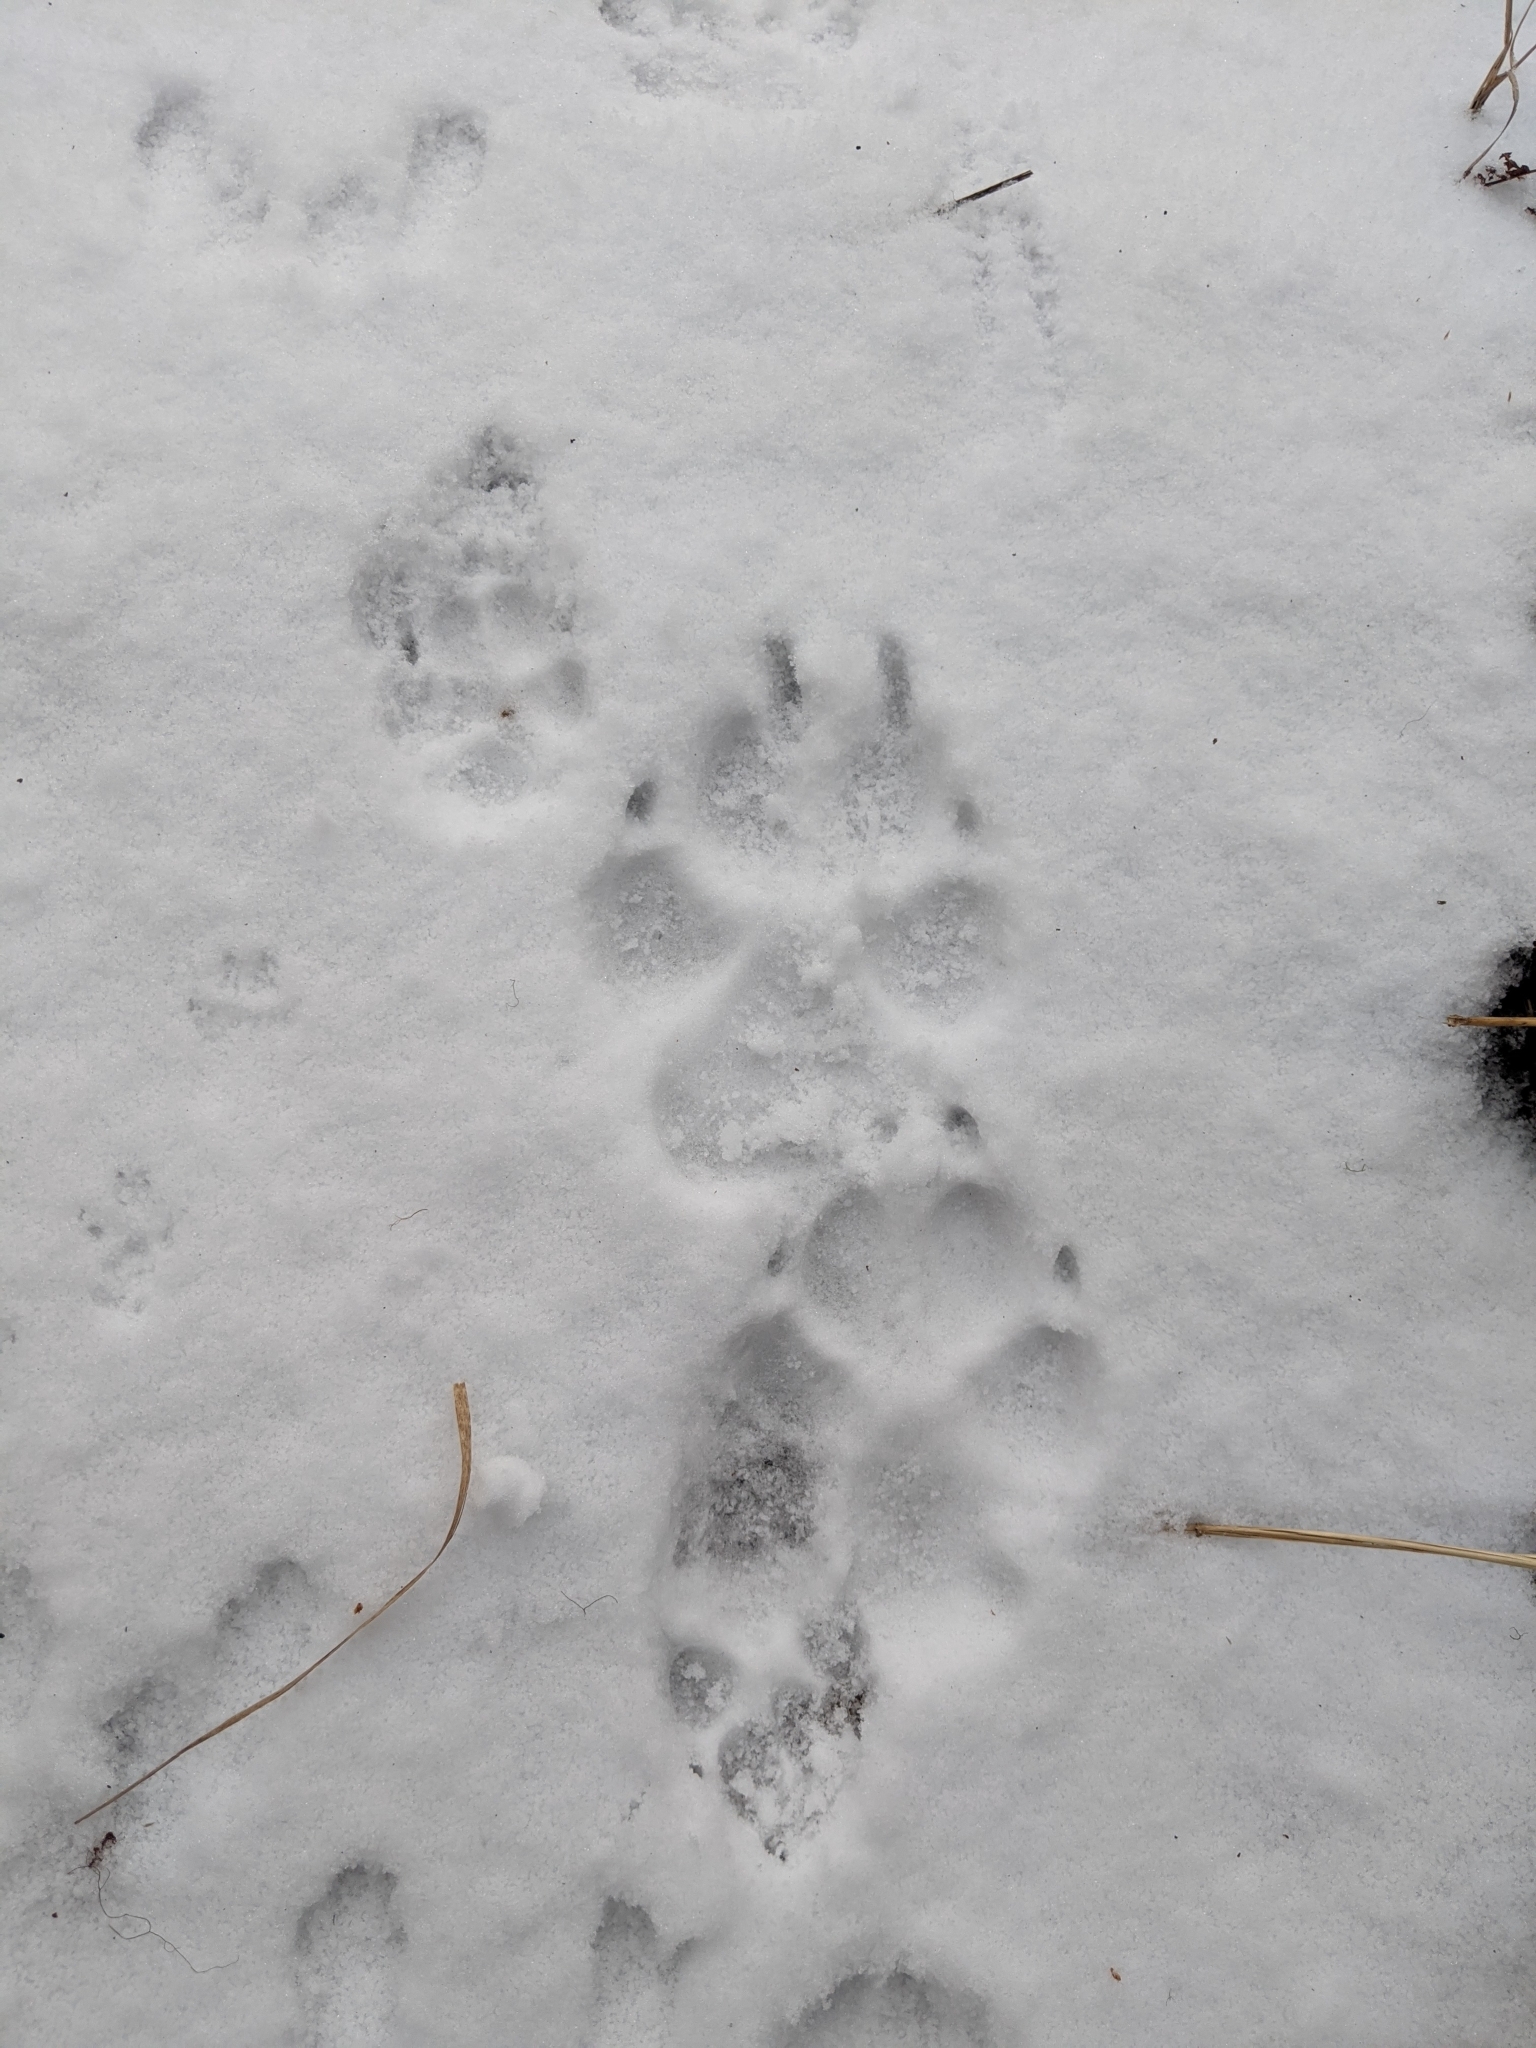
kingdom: Animalia
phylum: Chordata
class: Mammalia
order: Carnivora
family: Canidae
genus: Canis
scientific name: Canis lupus
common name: Gray wolf
